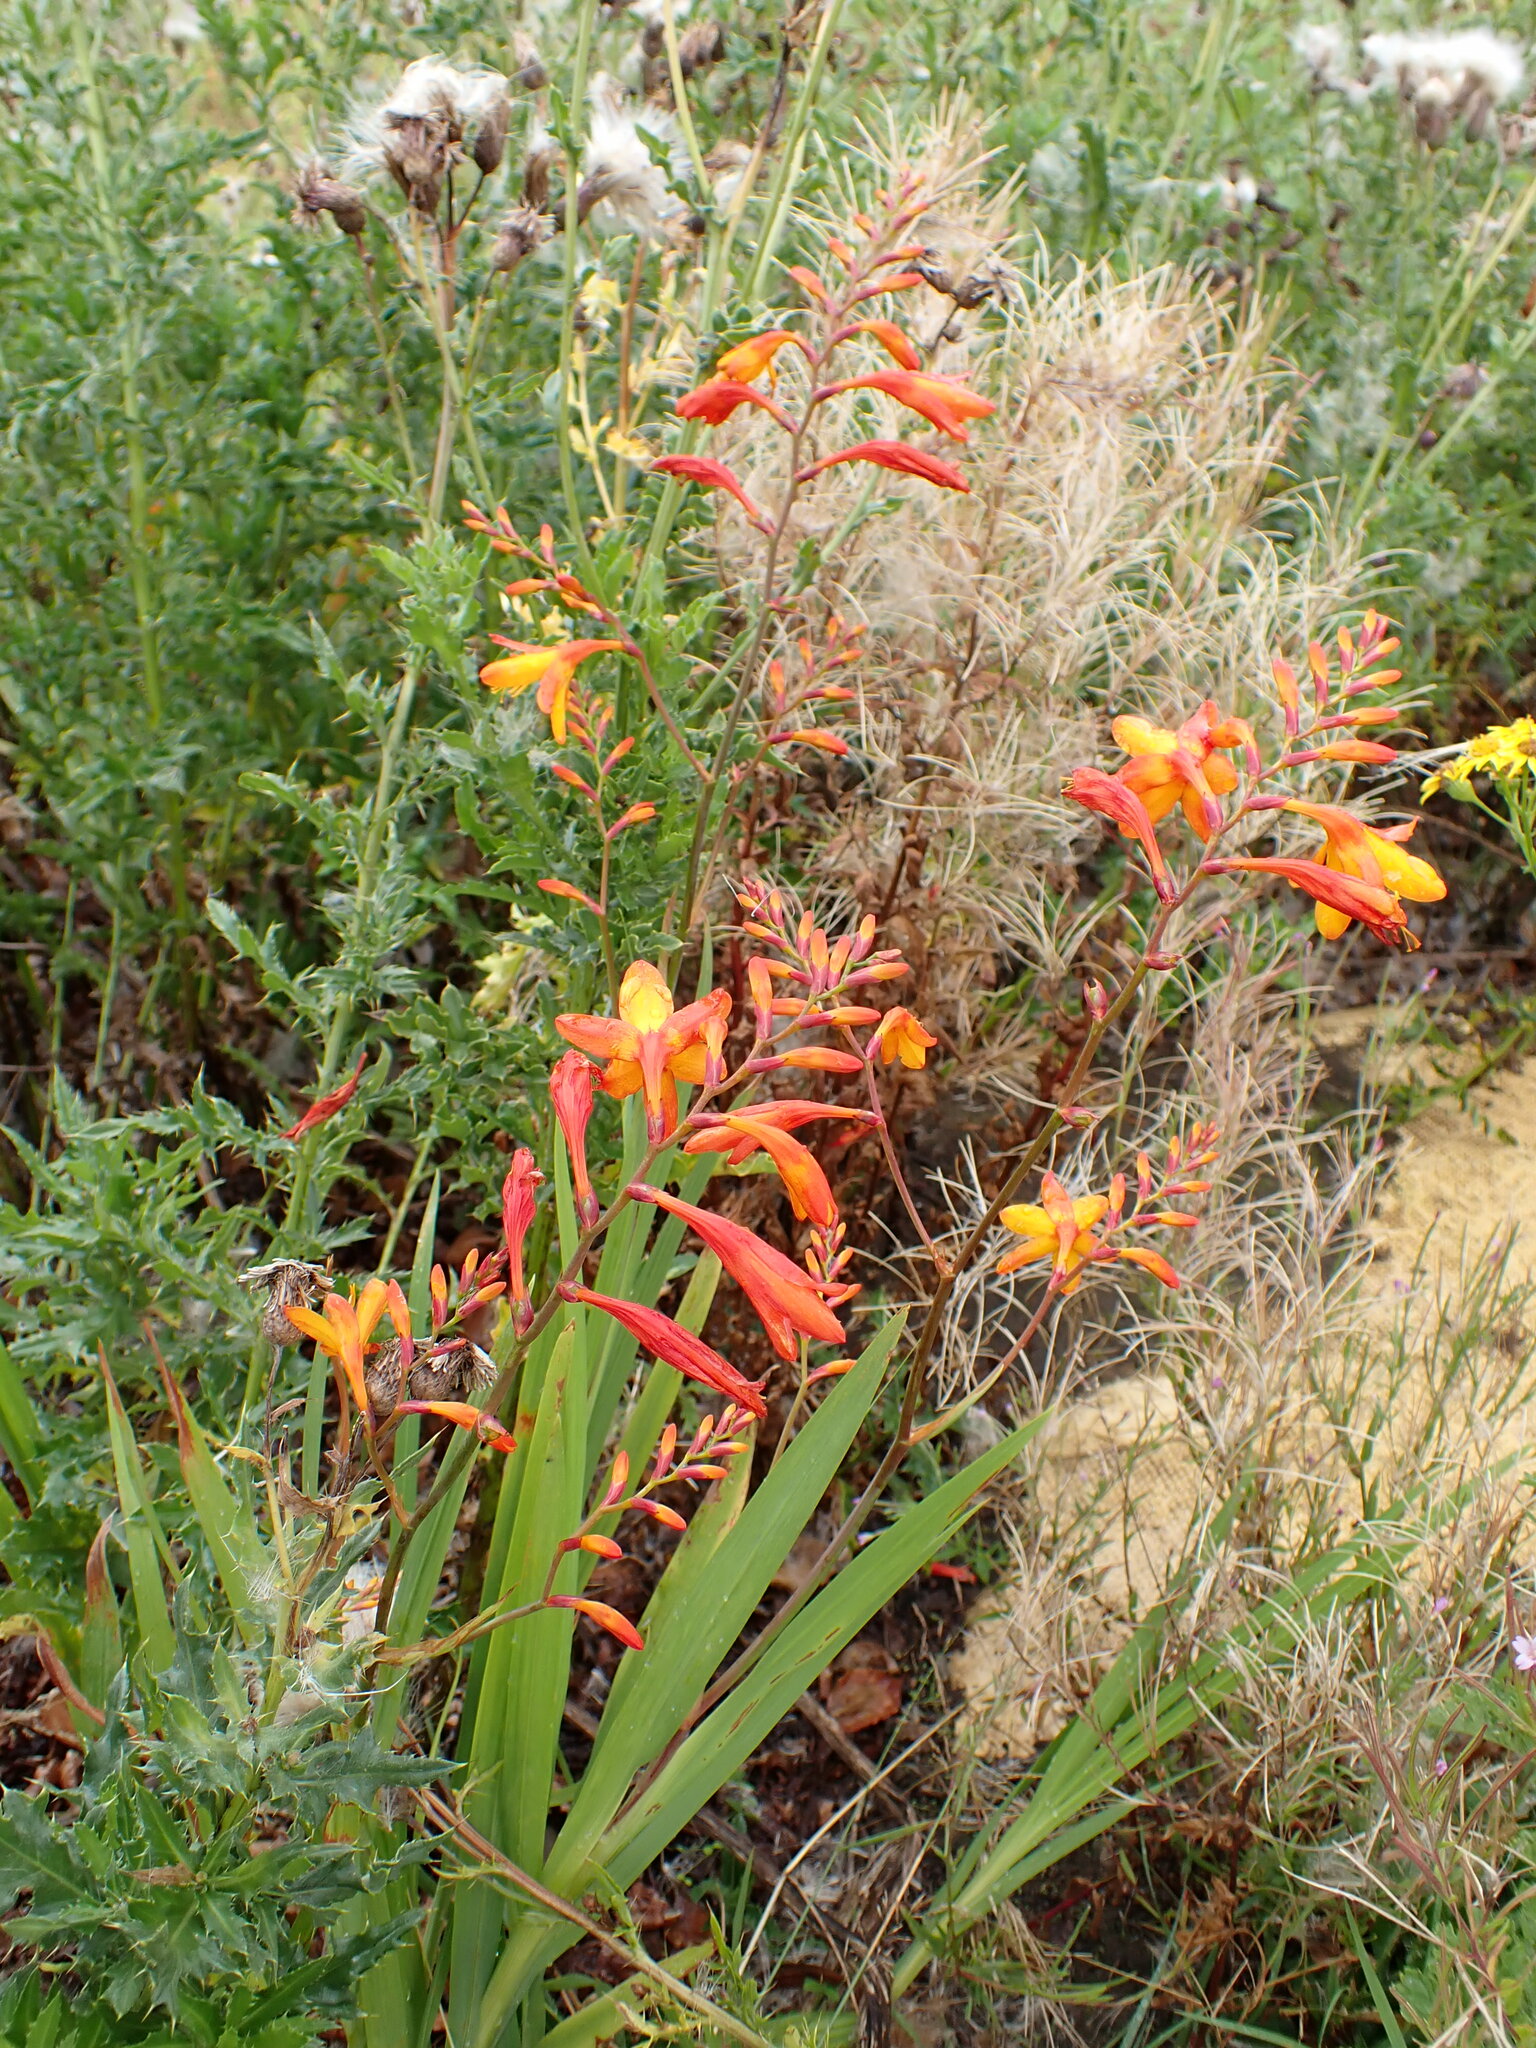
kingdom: Plantae
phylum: Tracheophyta
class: Liliopsida
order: Asparagales
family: Iridaceae
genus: Crocosmia
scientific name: Crocosmia crocosmiiflora
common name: Montbretia
